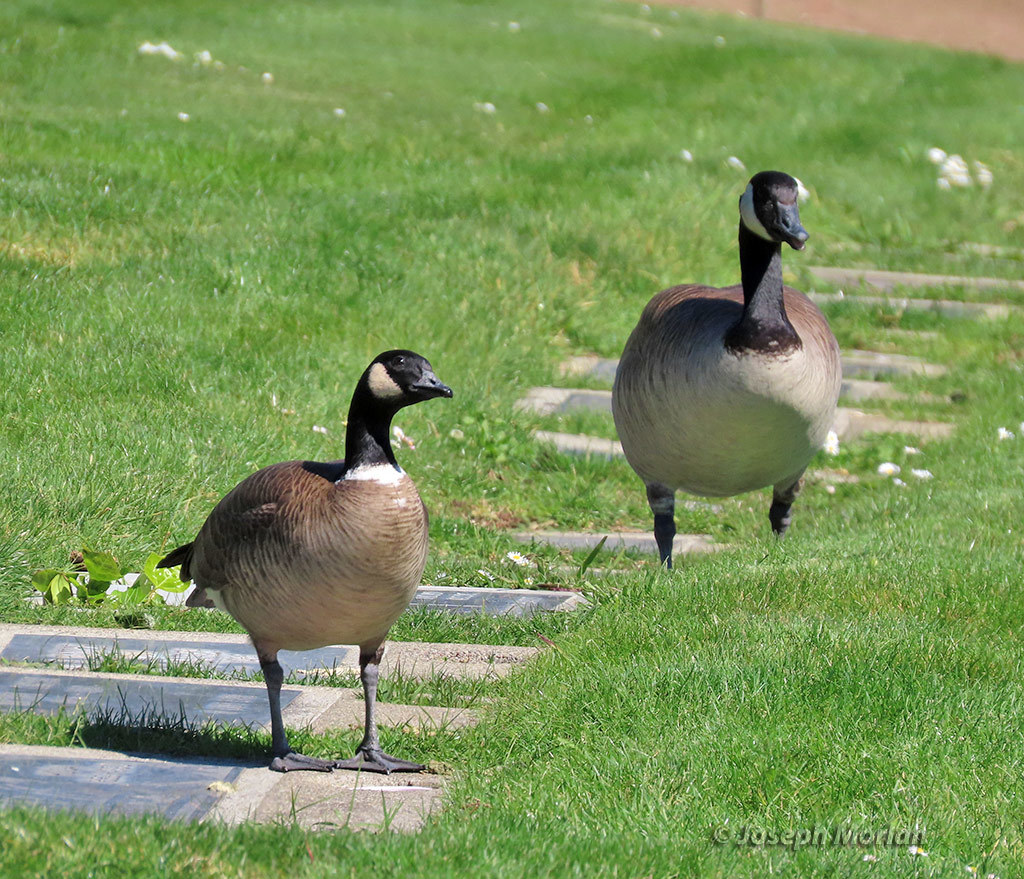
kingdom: Animalia
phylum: Chordata
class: Aves
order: Anseriformes
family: Anatidae
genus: Branta
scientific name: Branta hutchinsii
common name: Cackling goose
